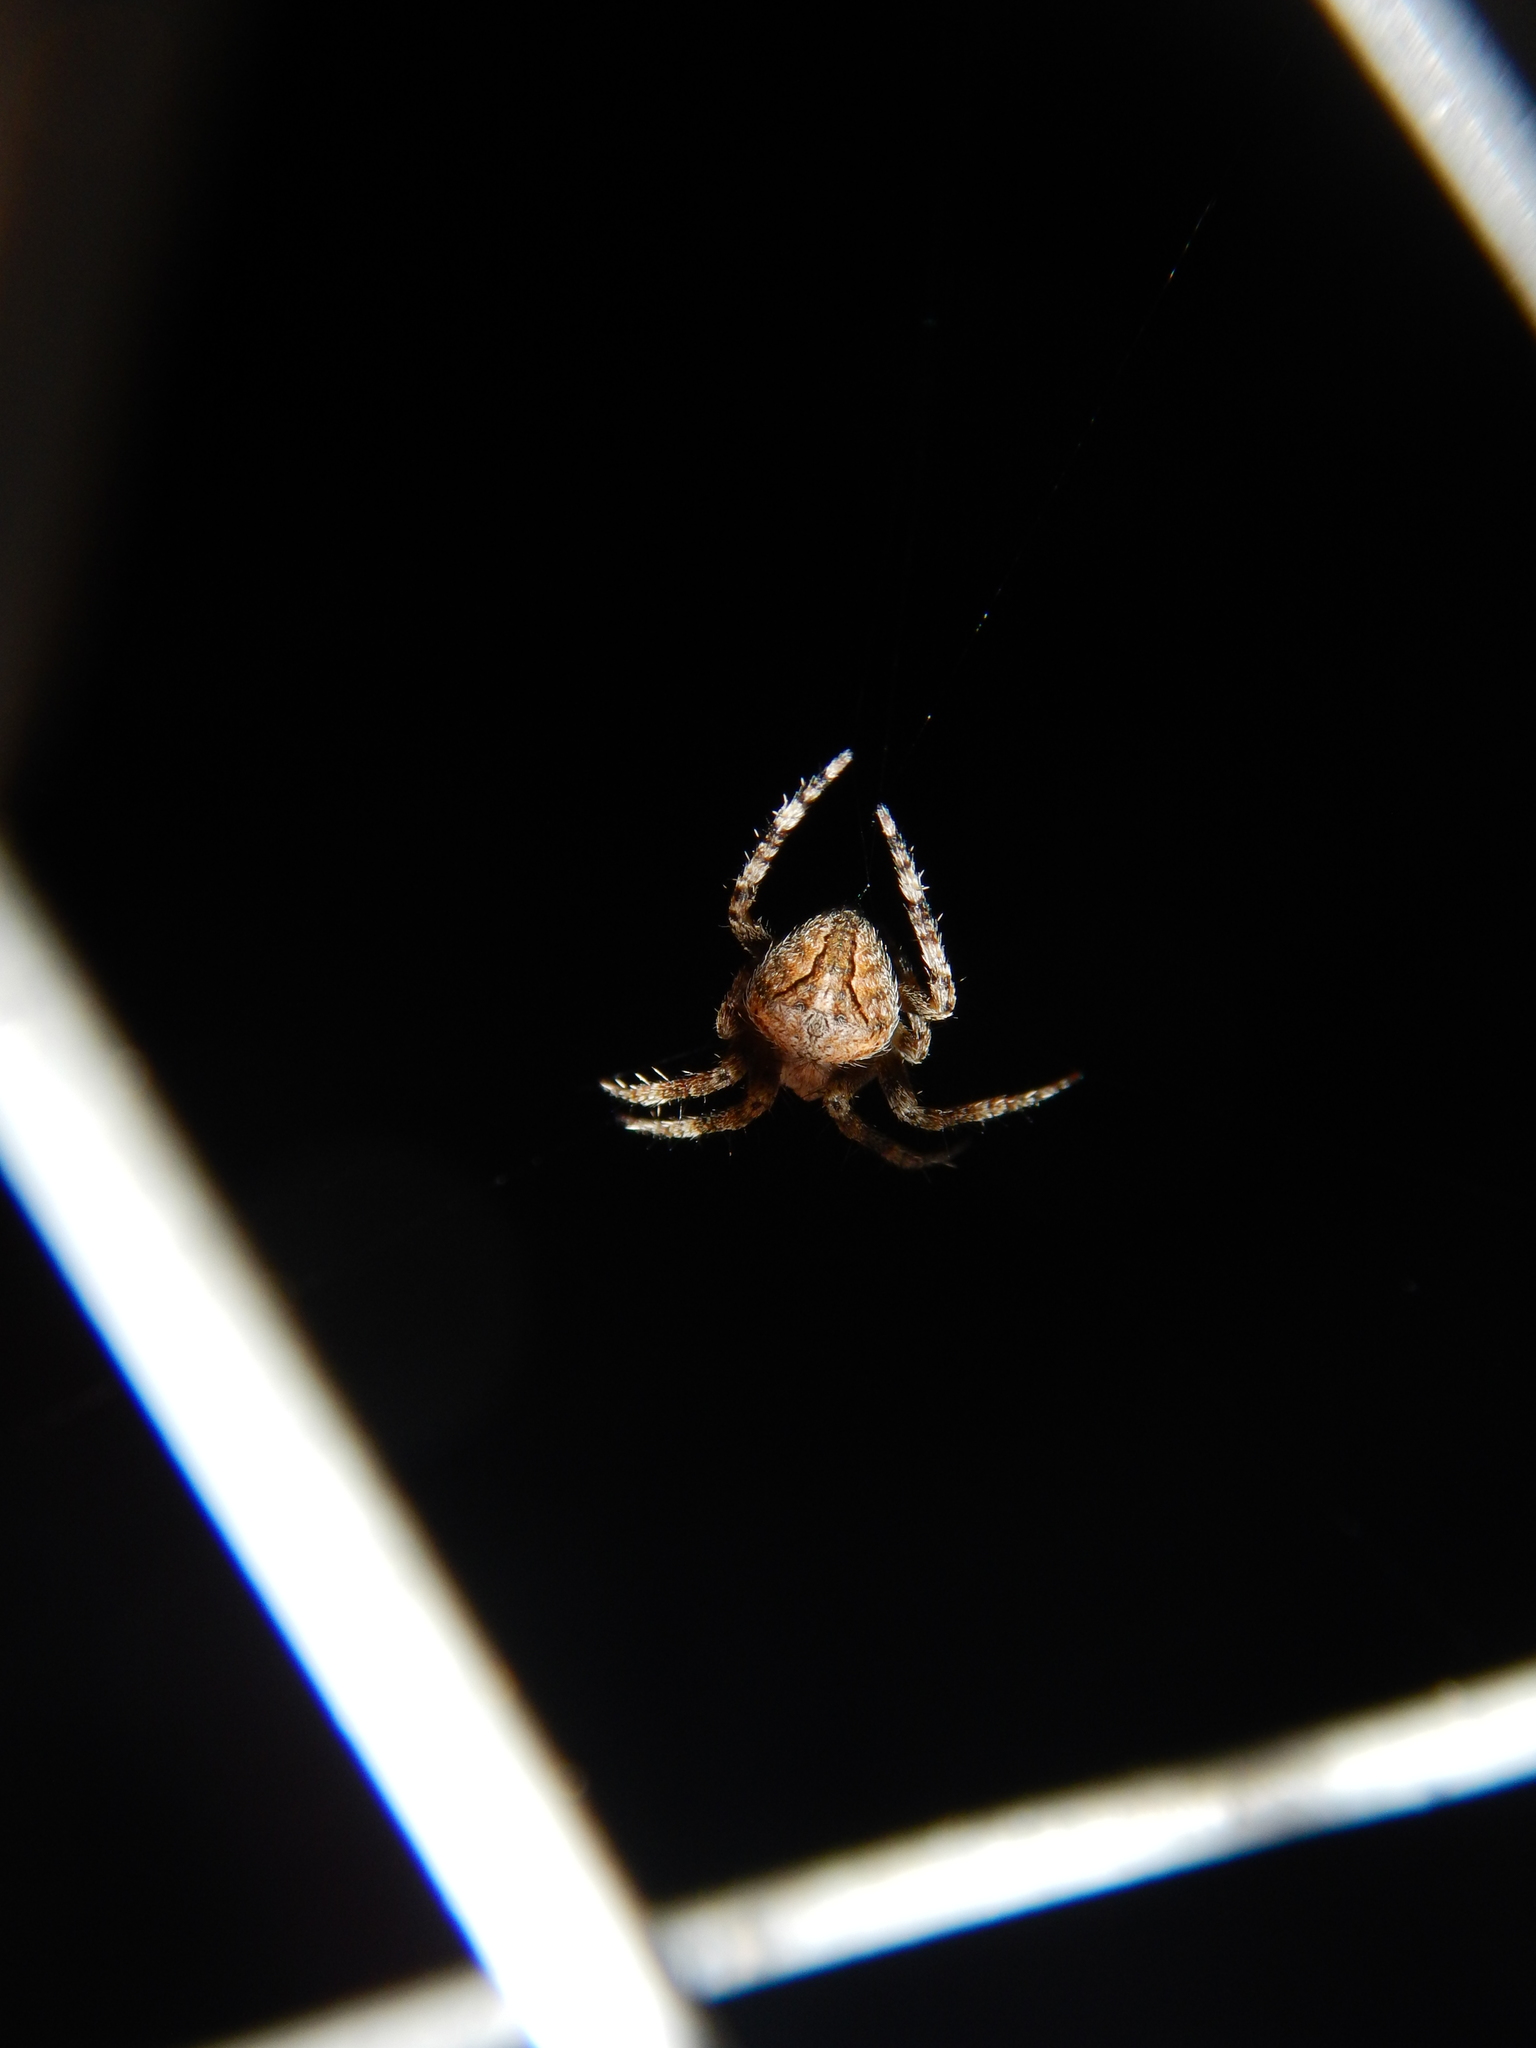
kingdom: Animalia
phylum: Arthropoda
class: Arachnida
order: Araneae
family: Araneidae
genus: Neoscona
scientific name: Neoscona subfusca
